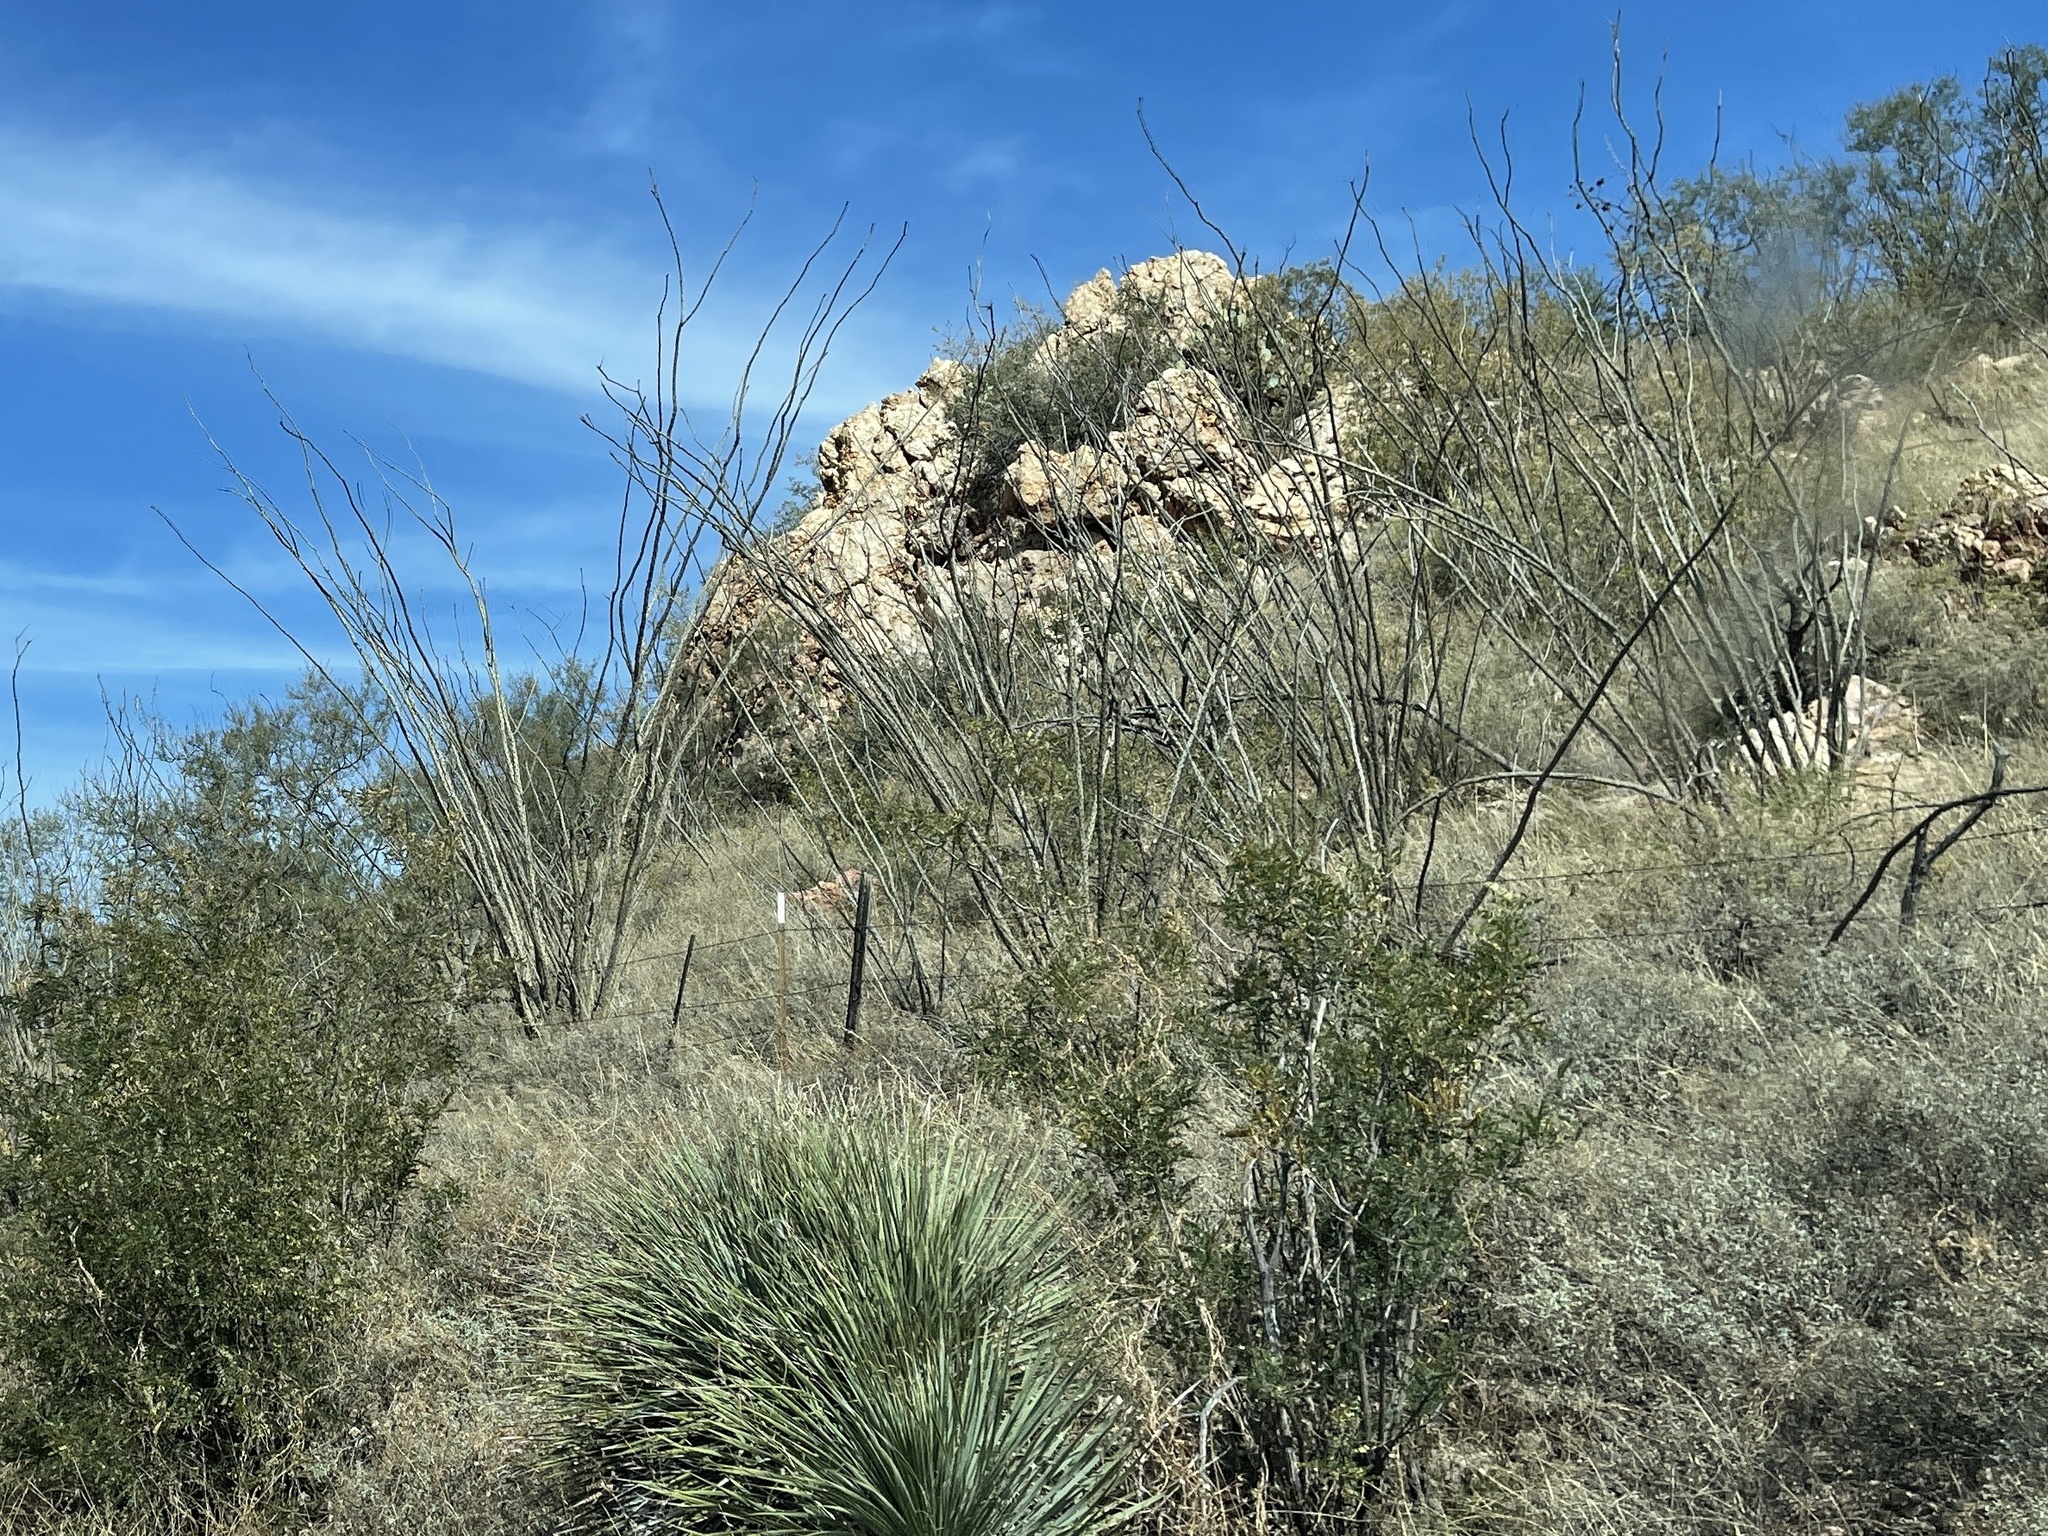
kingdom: Plantae
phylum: Tracheophyta
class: Magnoliopsida
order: Ericales
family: Fouquieriaceae
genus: Fouquieria
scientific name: Fouquieria splendens
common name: Vine-cactus
